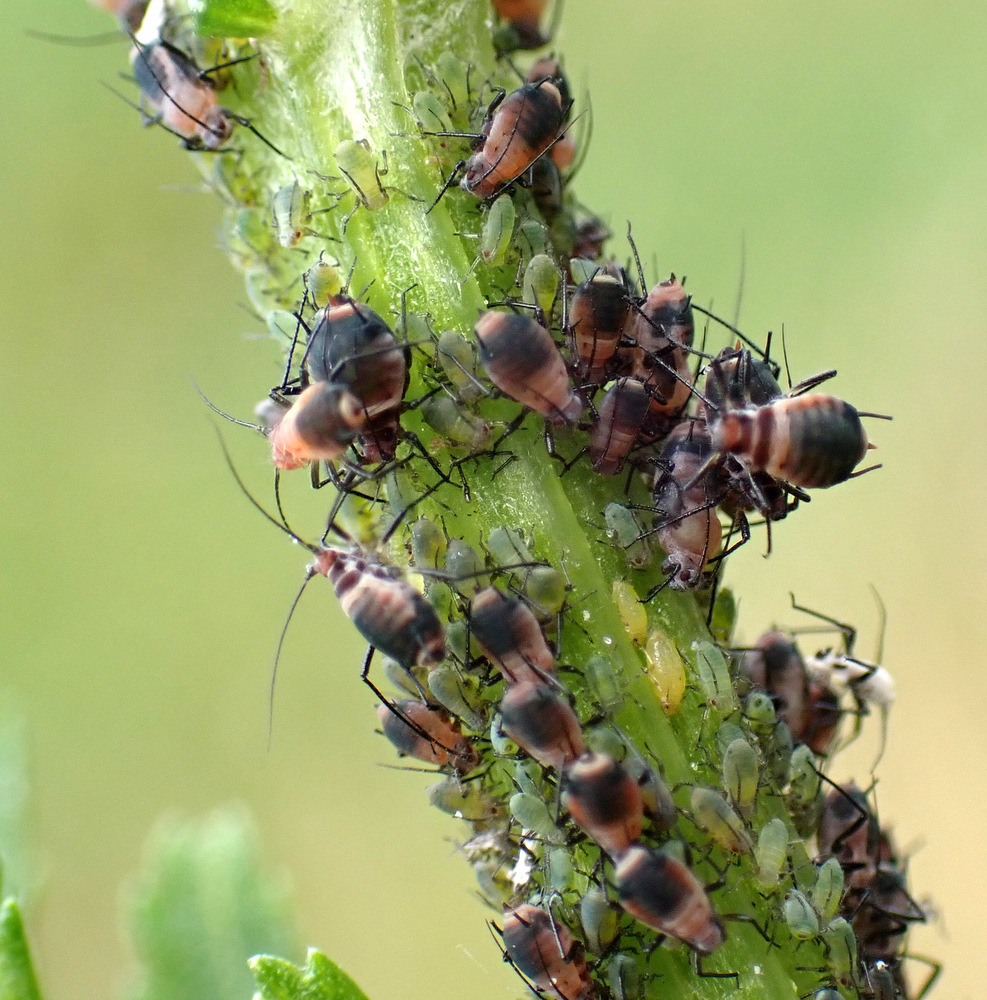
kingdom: Animalia
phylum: Arthropoda
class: Insecta
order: Hemiptera
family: Aphididae
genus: Metopeurum
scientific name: Metopeurum fuscoviride
